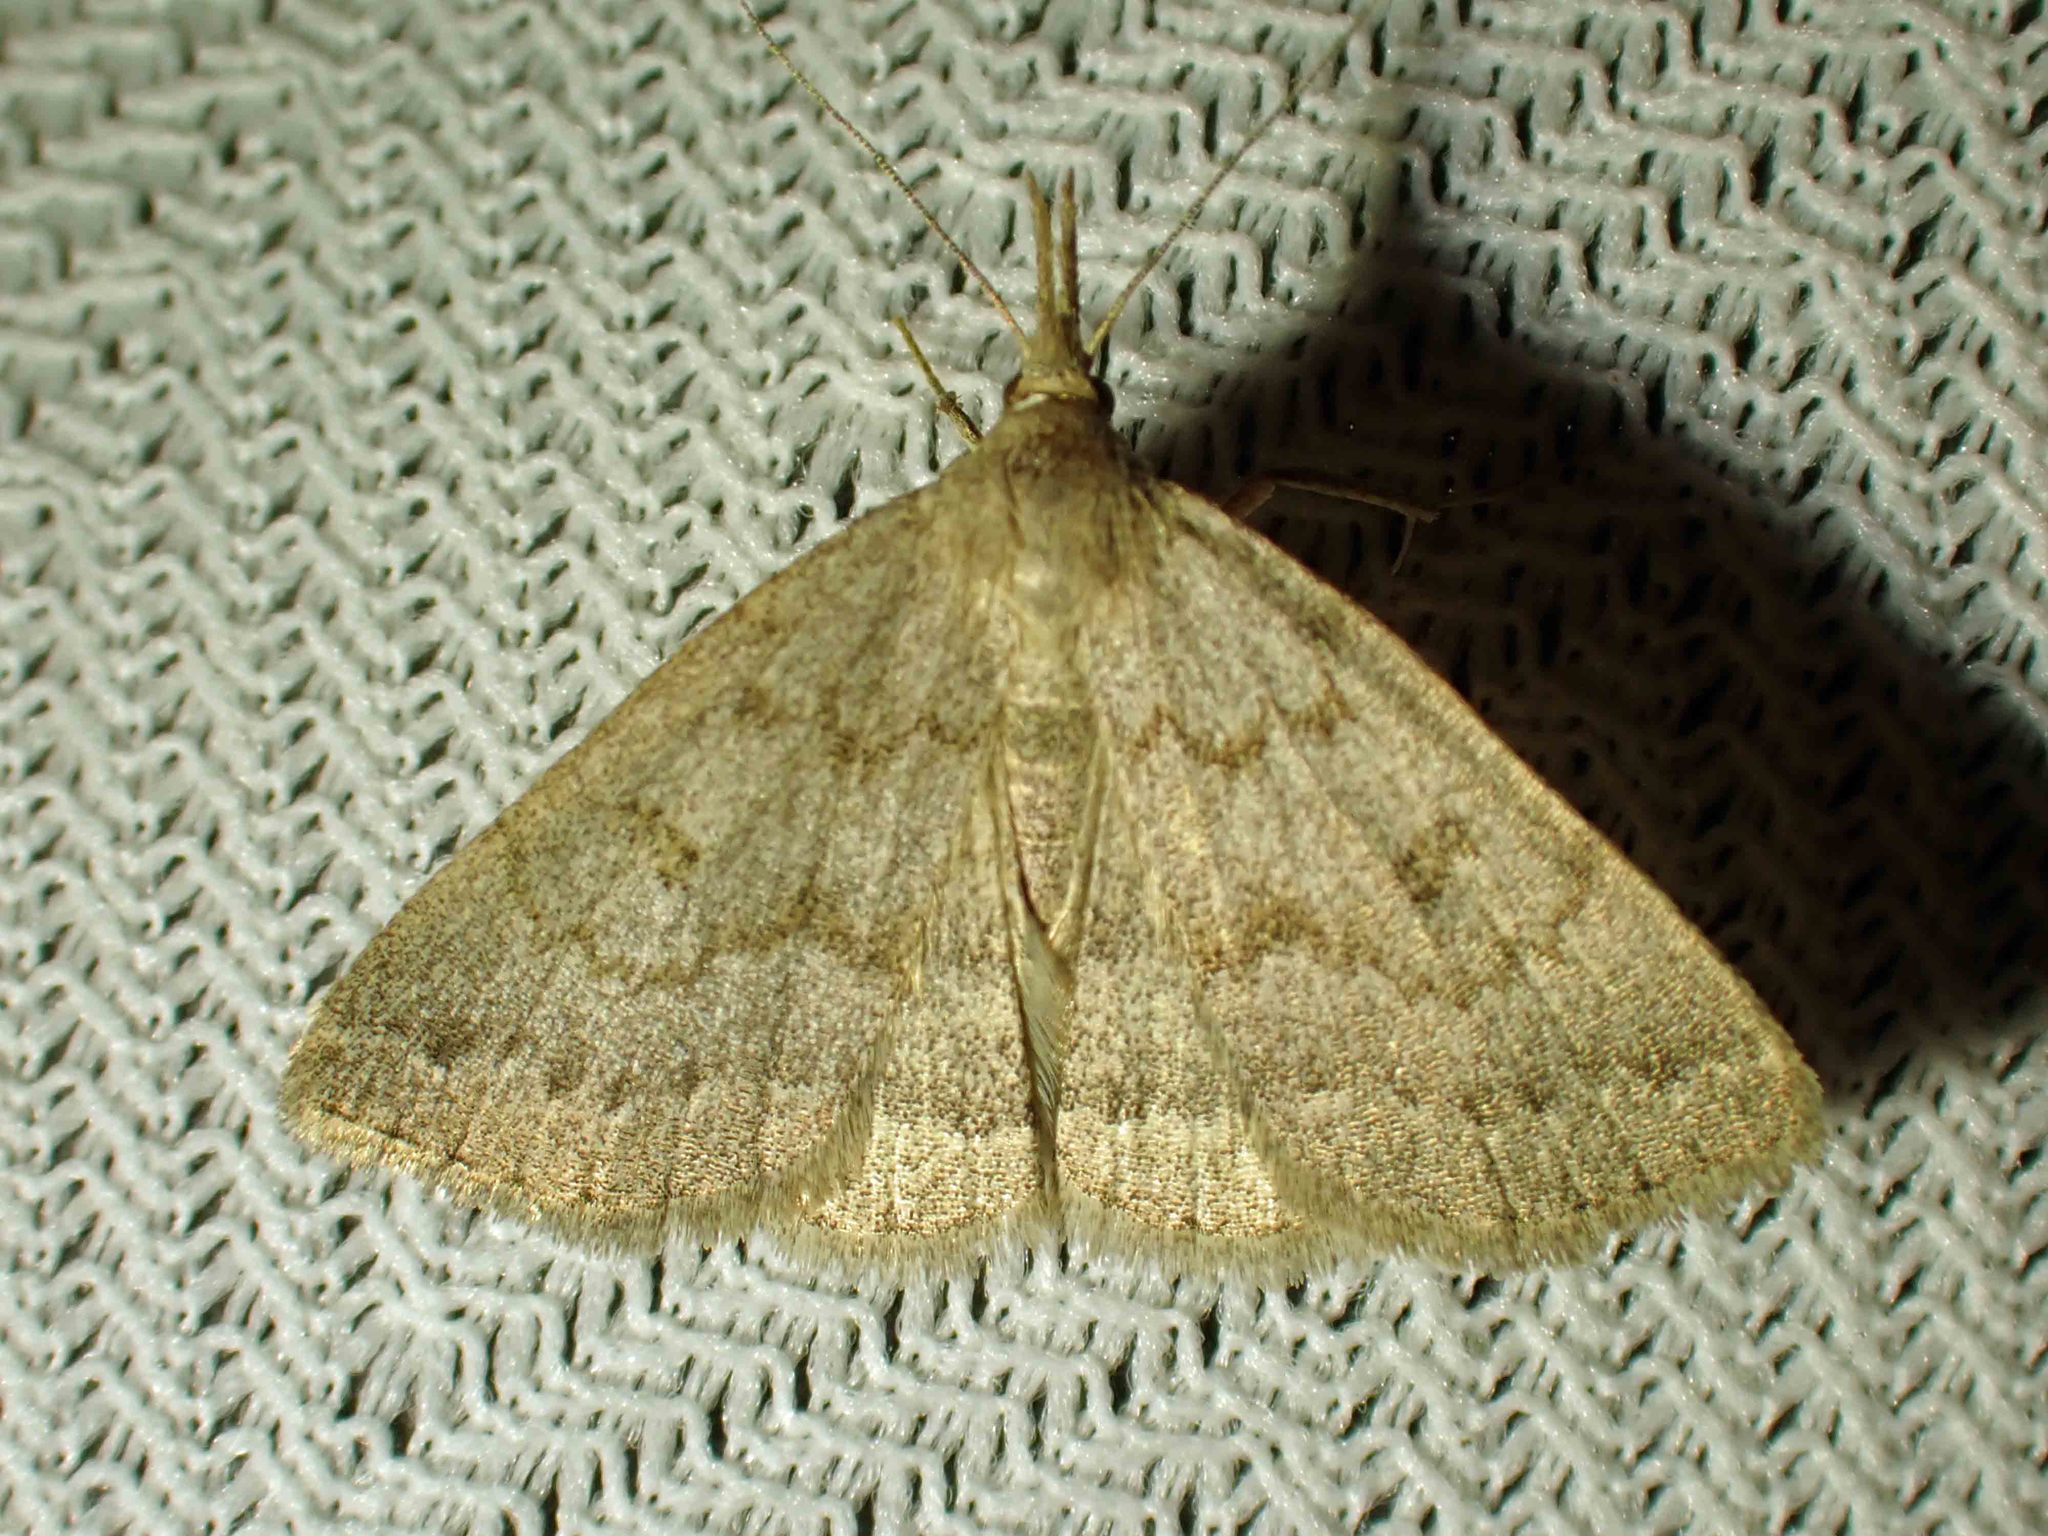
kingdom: Animalia
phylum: Arthropoda
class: Insecta
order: Lepidoptera
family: Erebidae
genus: Macrochilo
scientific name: Macrochilo morbidalis
